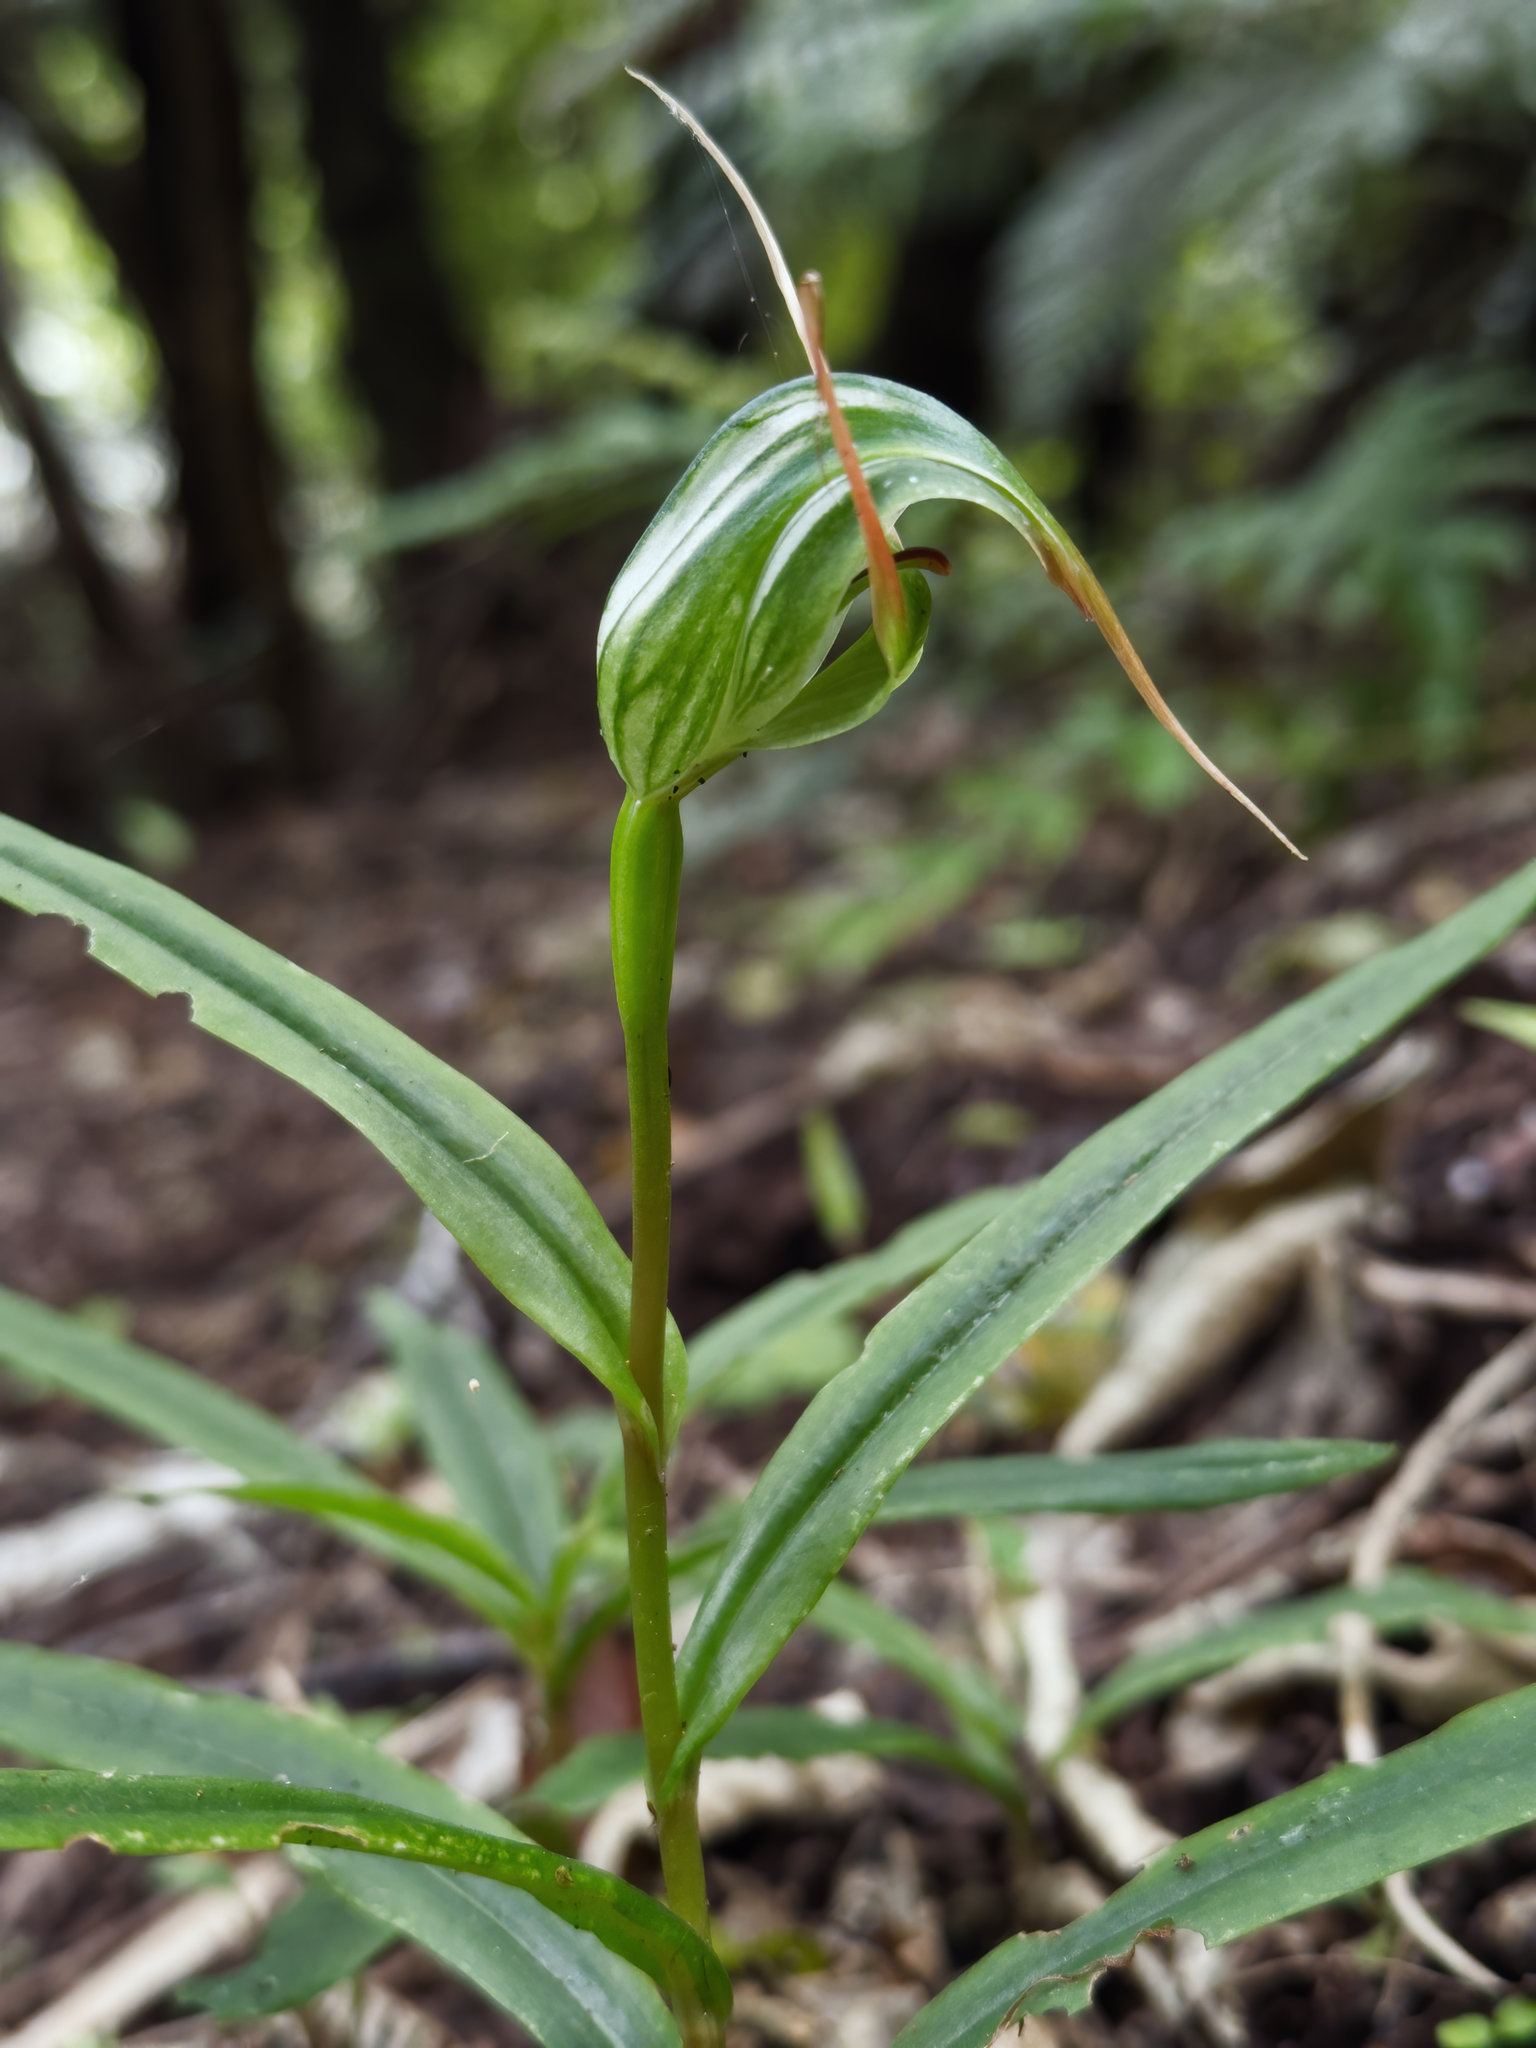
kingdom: Plantae
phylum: Tracheophyta
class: Liliopsida
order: Asparagales
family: Orchidaceae
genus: Pterostylis
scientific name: Pterostylis banksii
